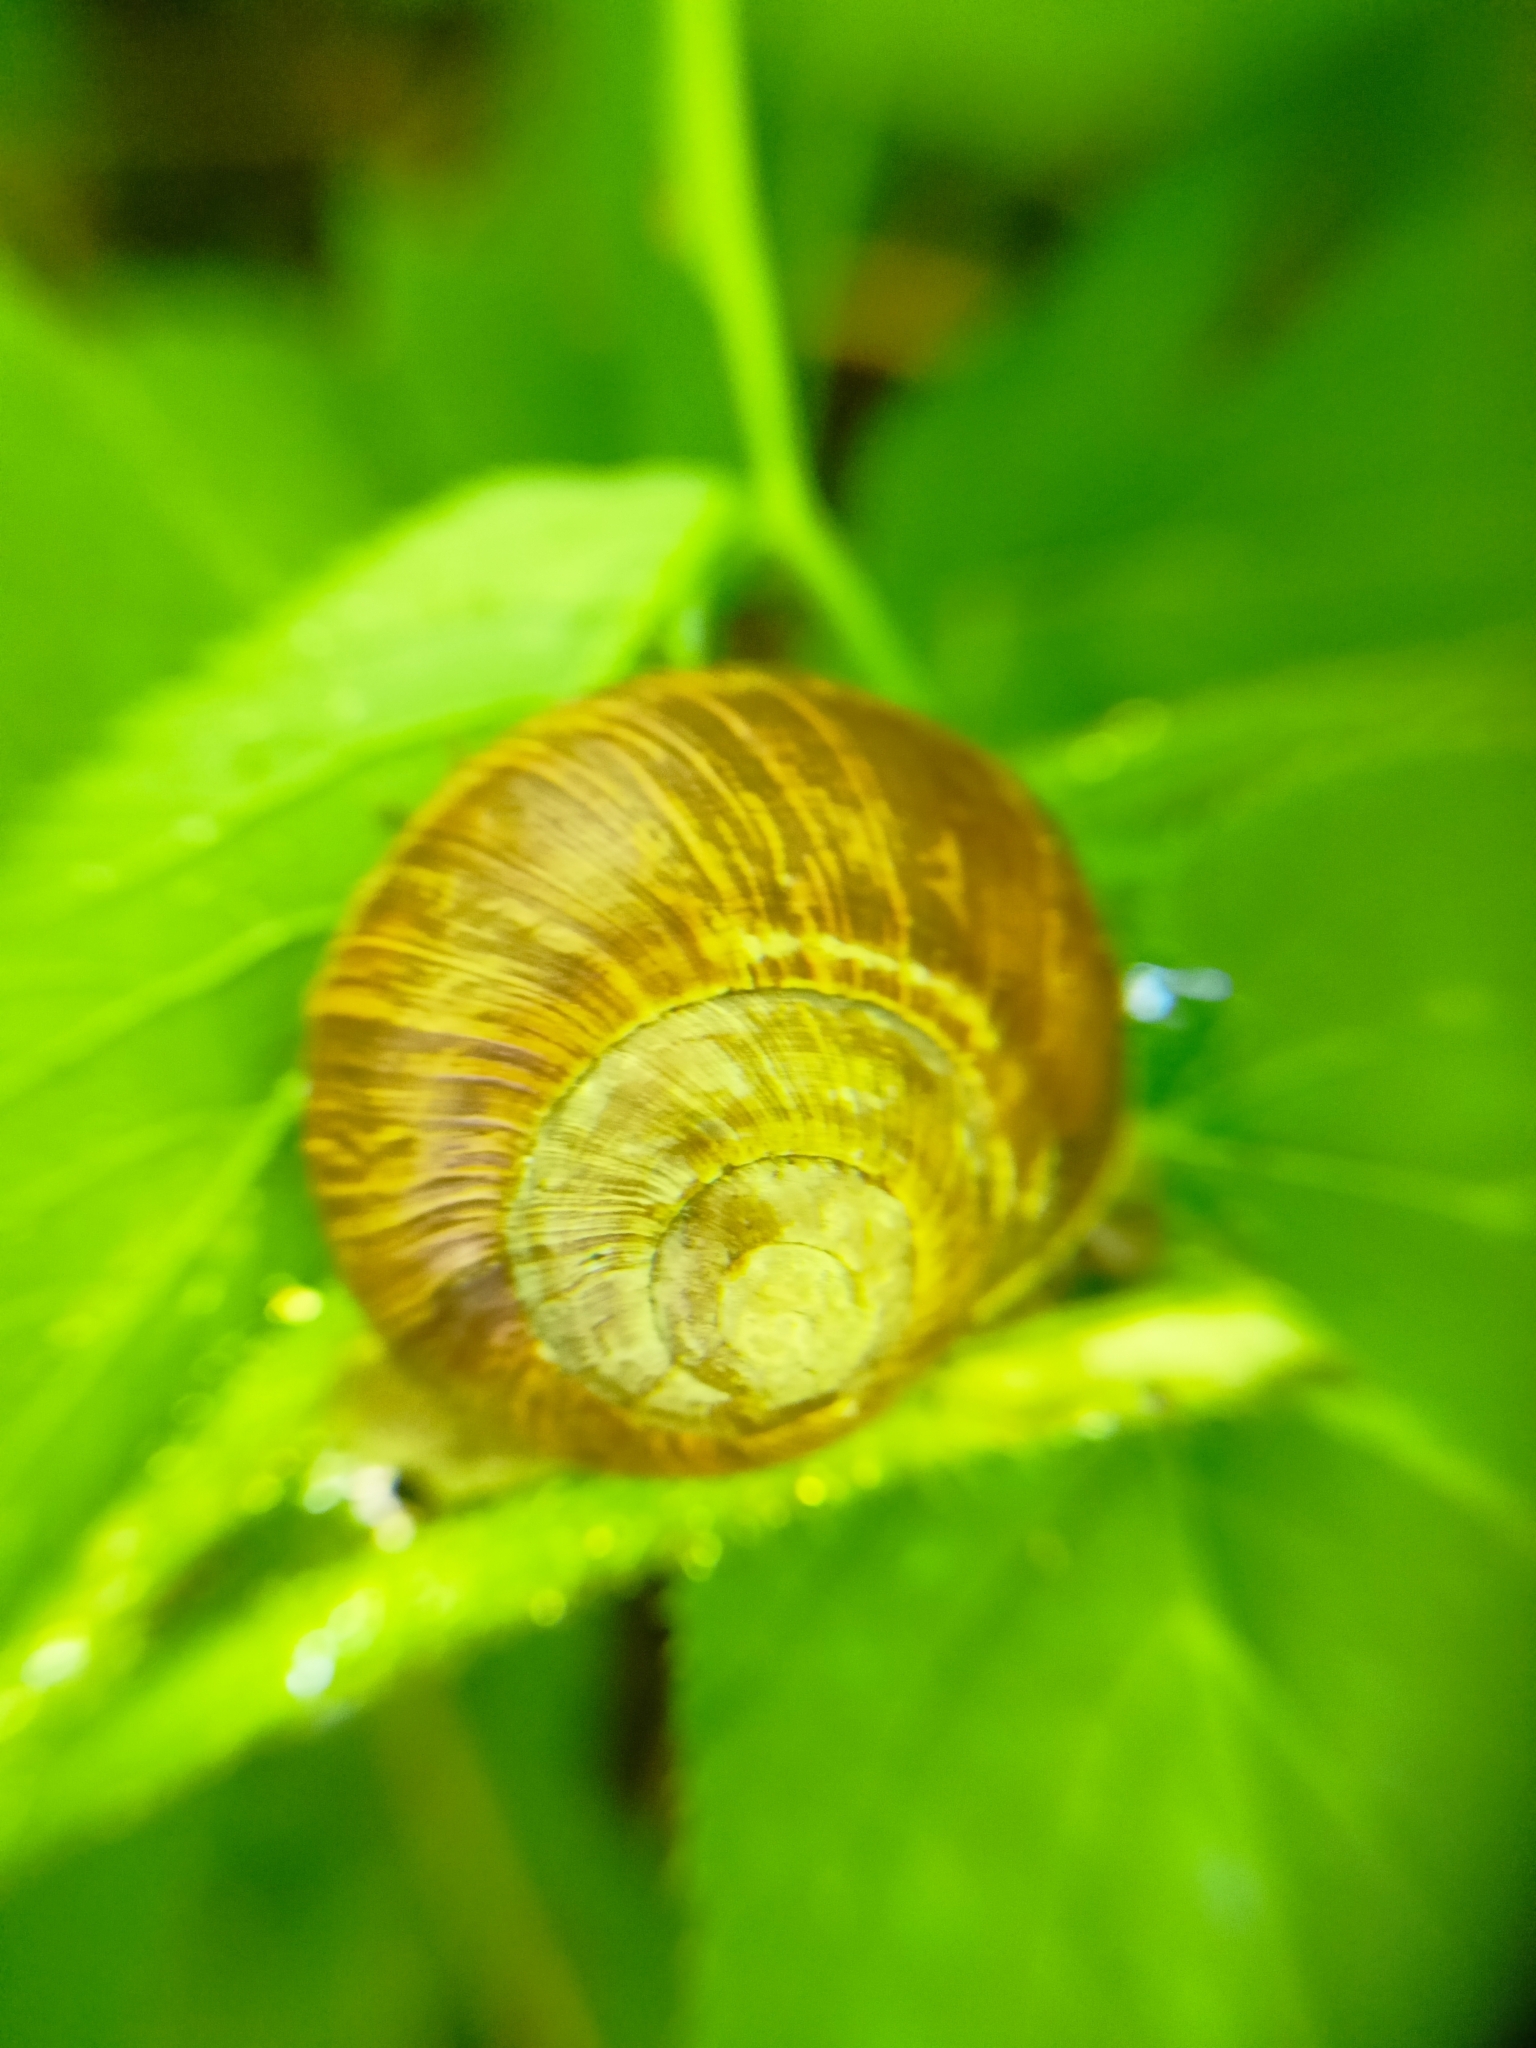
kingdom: Animalia
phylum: Mollusca
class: Gastropoda
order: Stylommatophora
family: Helicidae
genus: Helix
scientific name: Helix pomatia
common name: Roman snail
